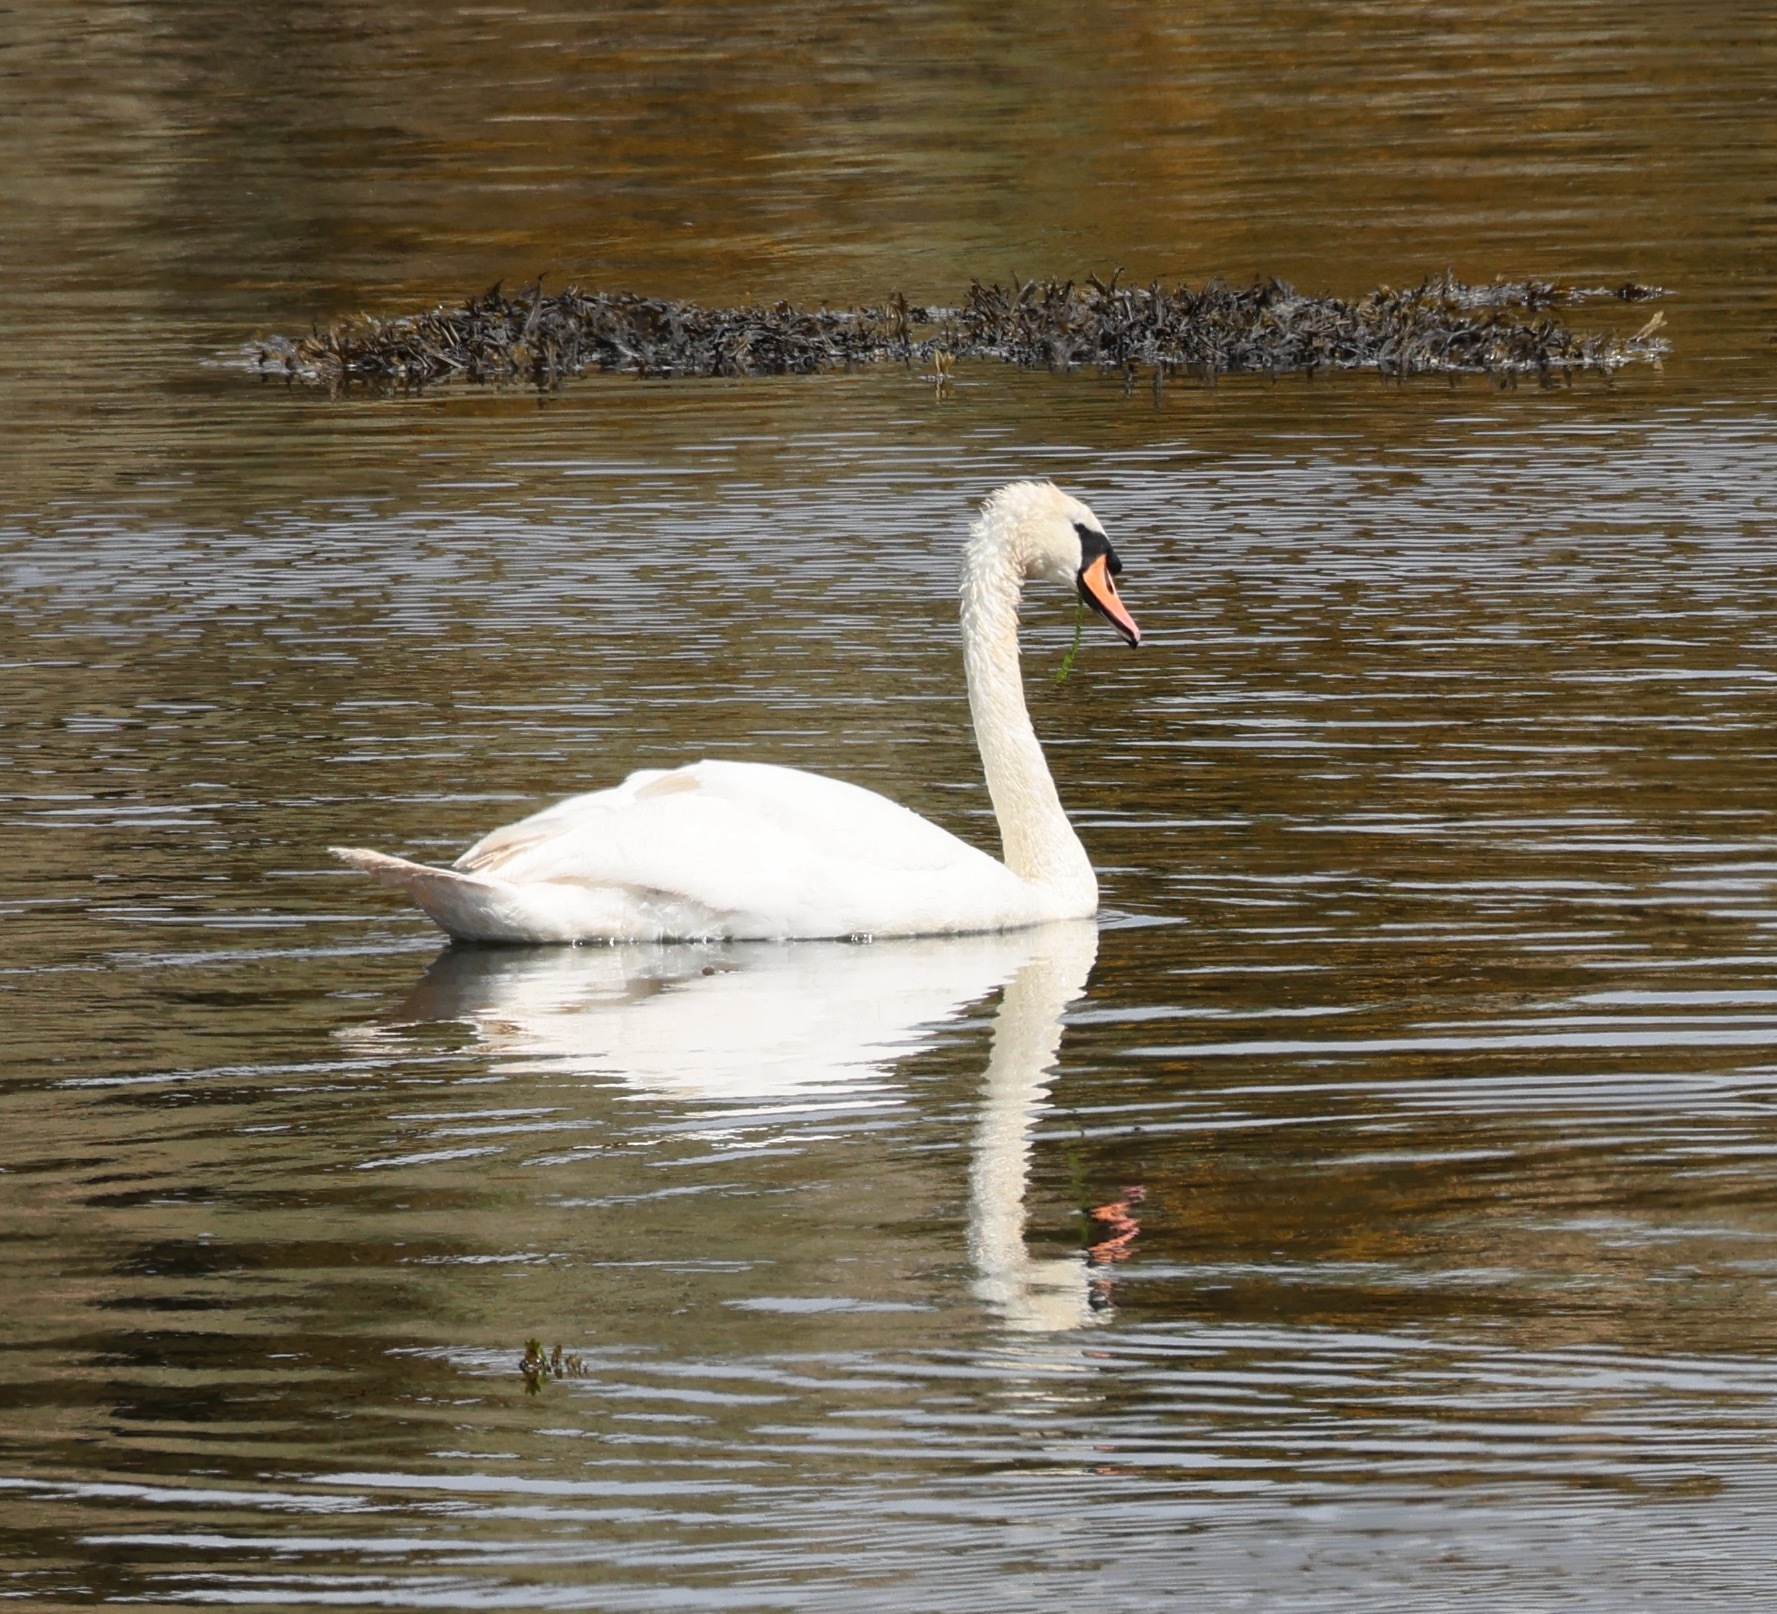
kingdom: Animalia
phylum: Chordata
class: Aves
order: Anseriformes
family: Anatidae
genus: Cygnus
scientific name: Cygnus olor
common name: Mute swan
